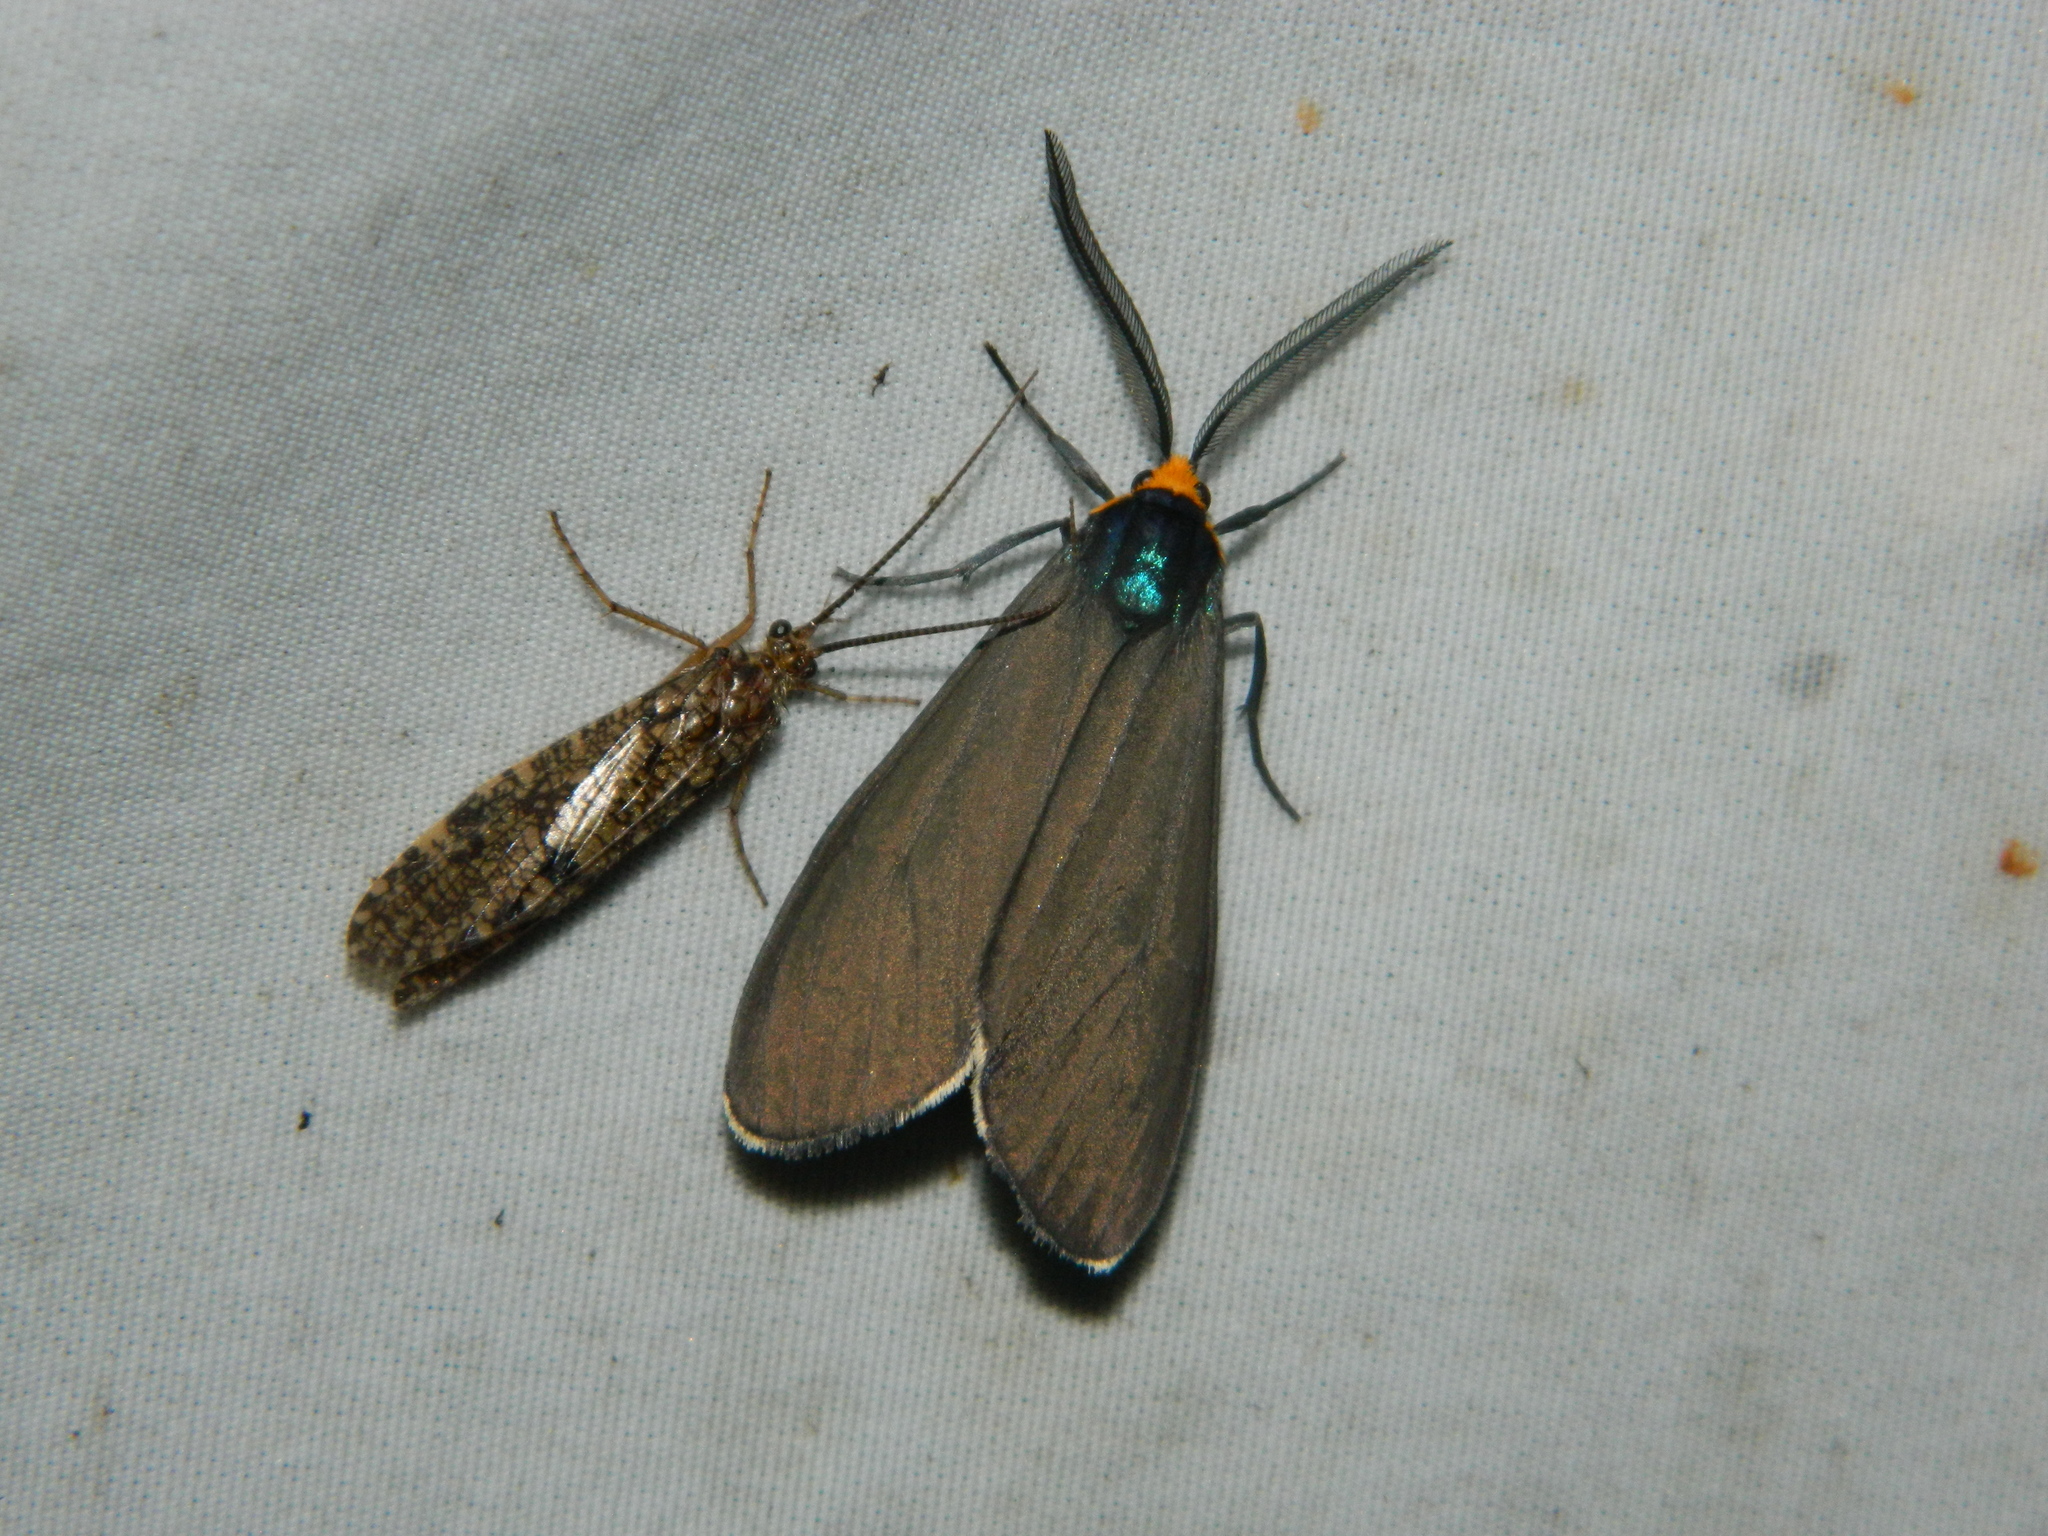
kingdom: Animalia
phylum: Arthropoda
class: Insecta
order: Lepidoptera
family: Erebidae
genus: Ctenucha
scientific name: Ctenucha virginica
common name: Virginia ctenucha moth
